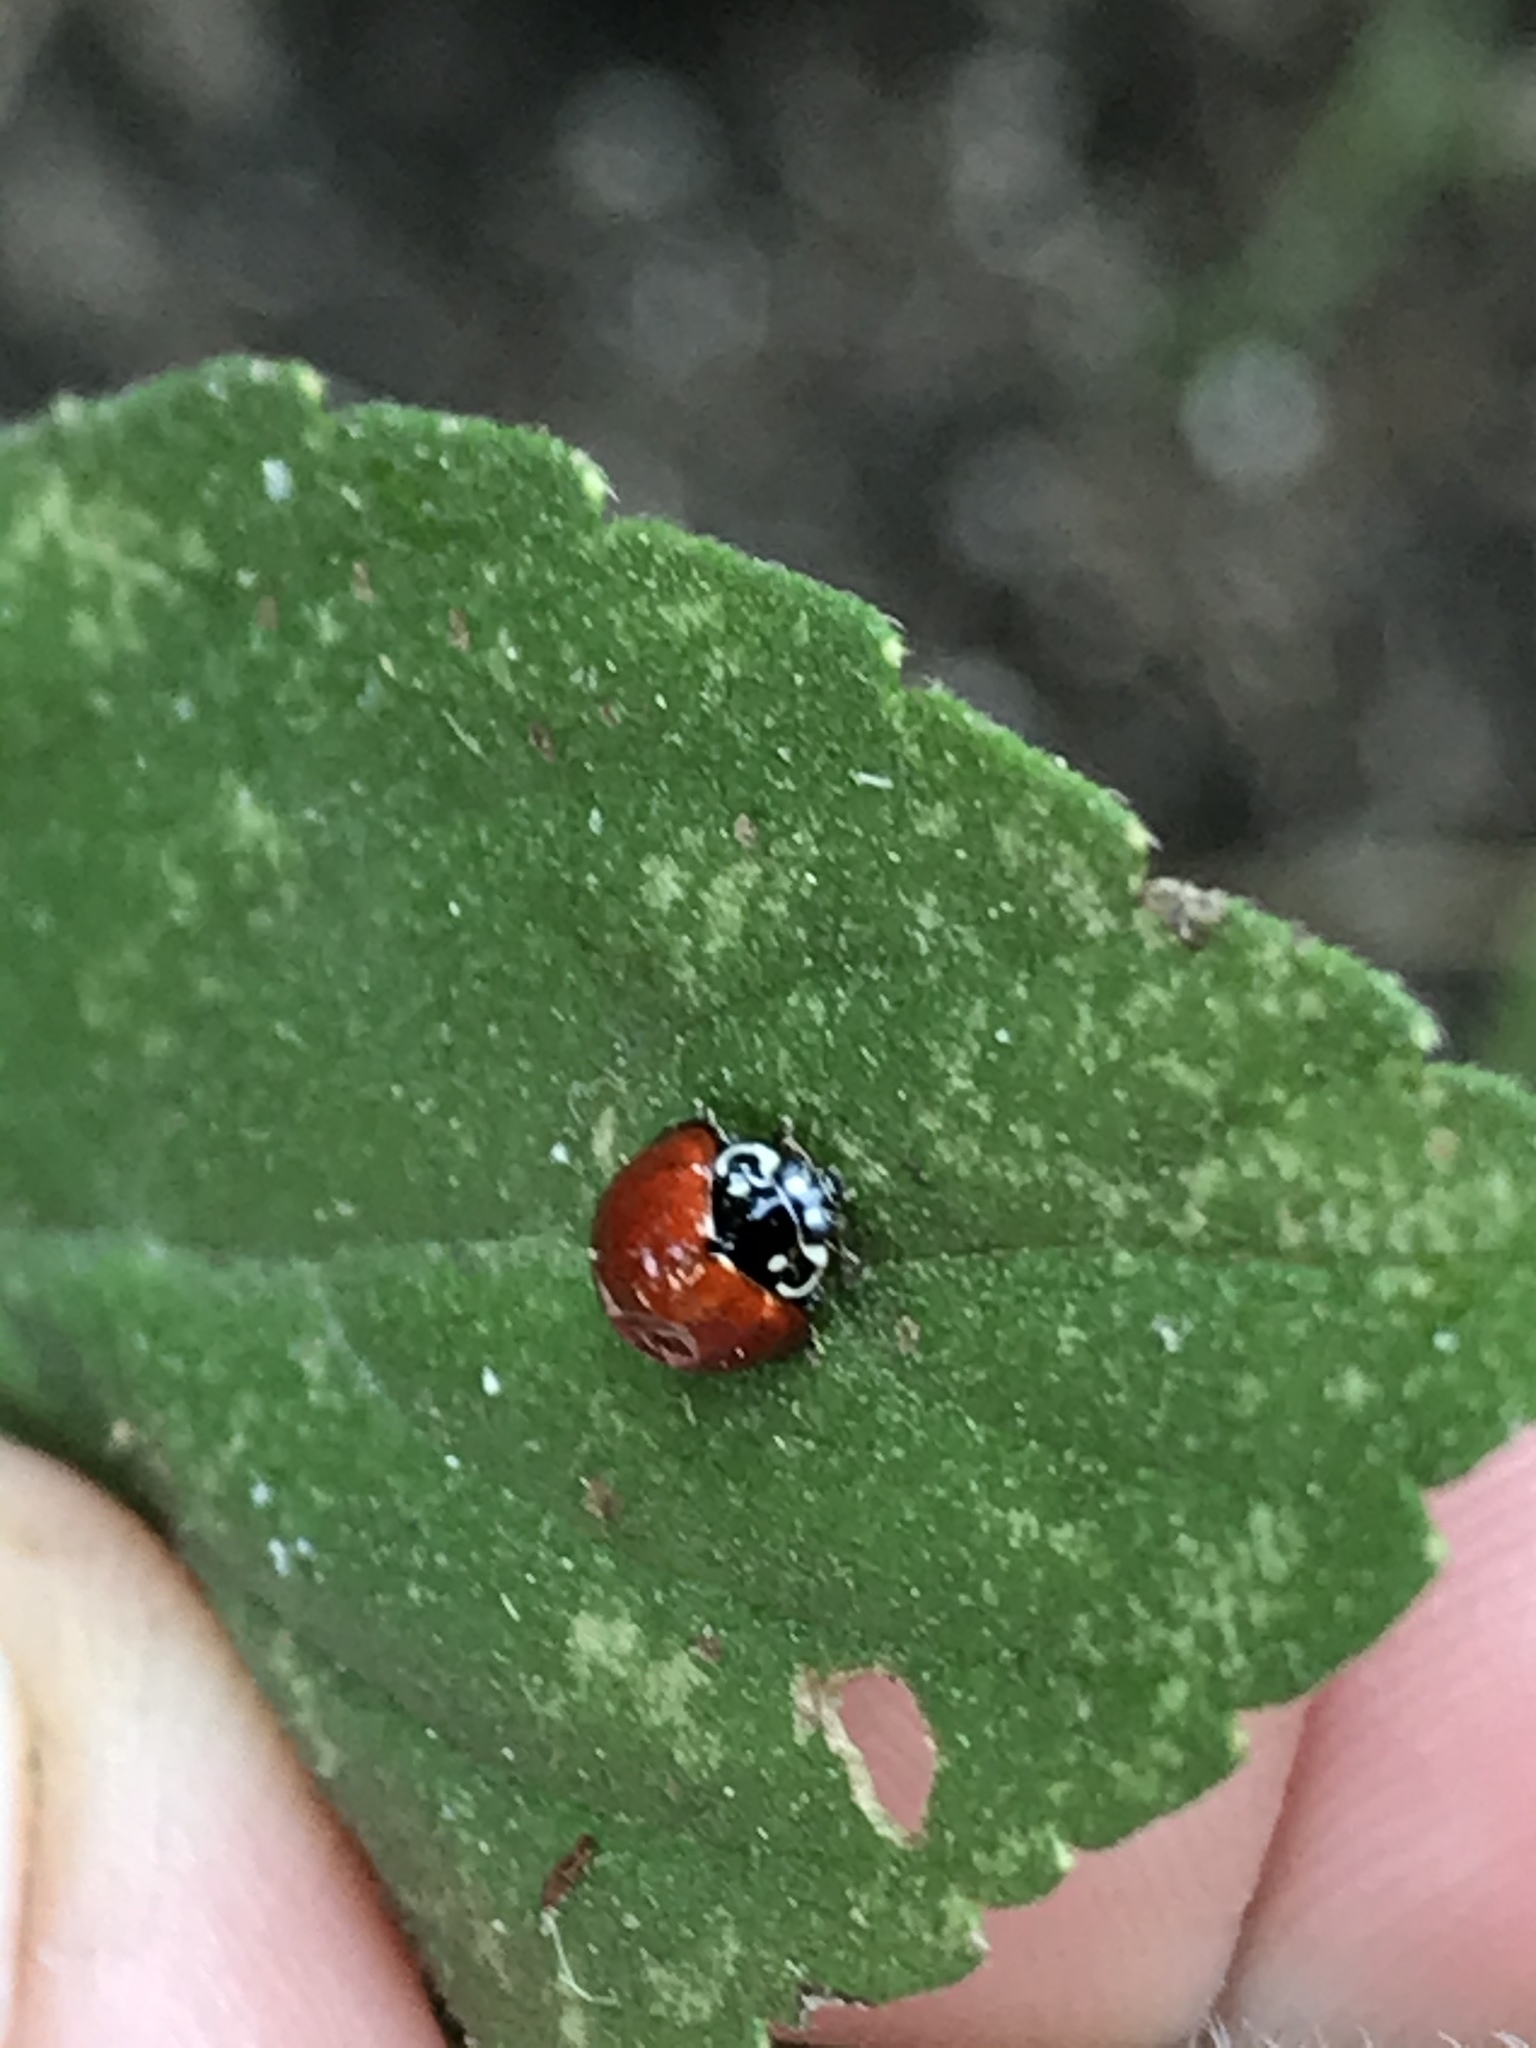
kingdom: Animalia
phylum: Arthropoda
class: Insecta
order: Coleoptera
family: Coccinellidae
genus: Cycloneda
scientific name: Cycloneda sanguinea
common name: Ladybird beetle
